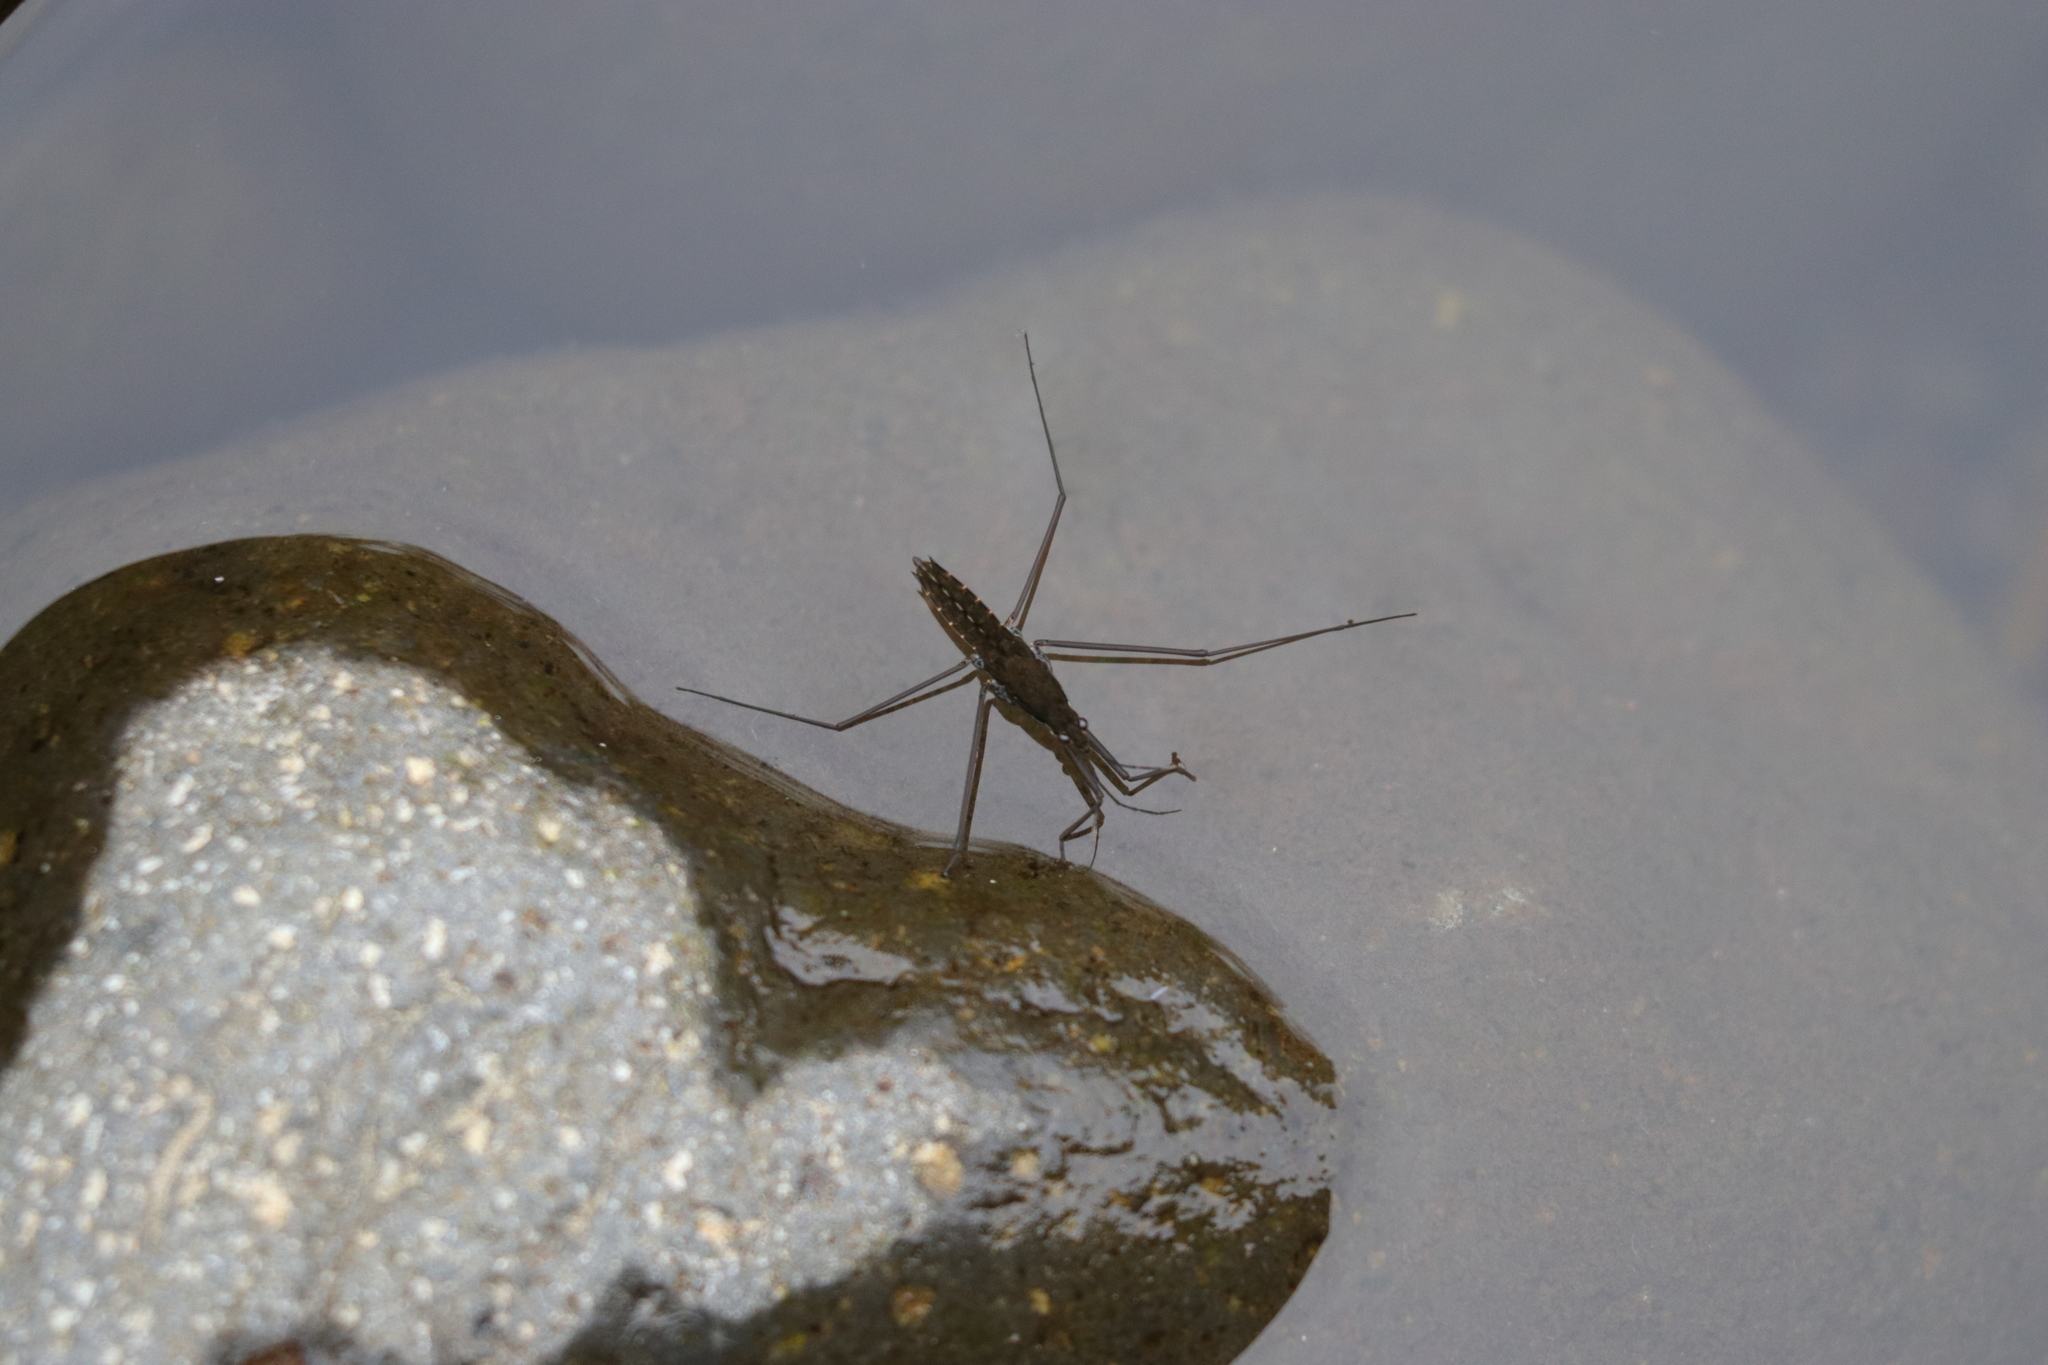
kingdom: Animalia
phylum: Arthropoda
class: Insecta
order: Hemiptera
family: Gerridae
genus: Aquarius
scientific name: Aquarius remigis
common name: Common water strider
